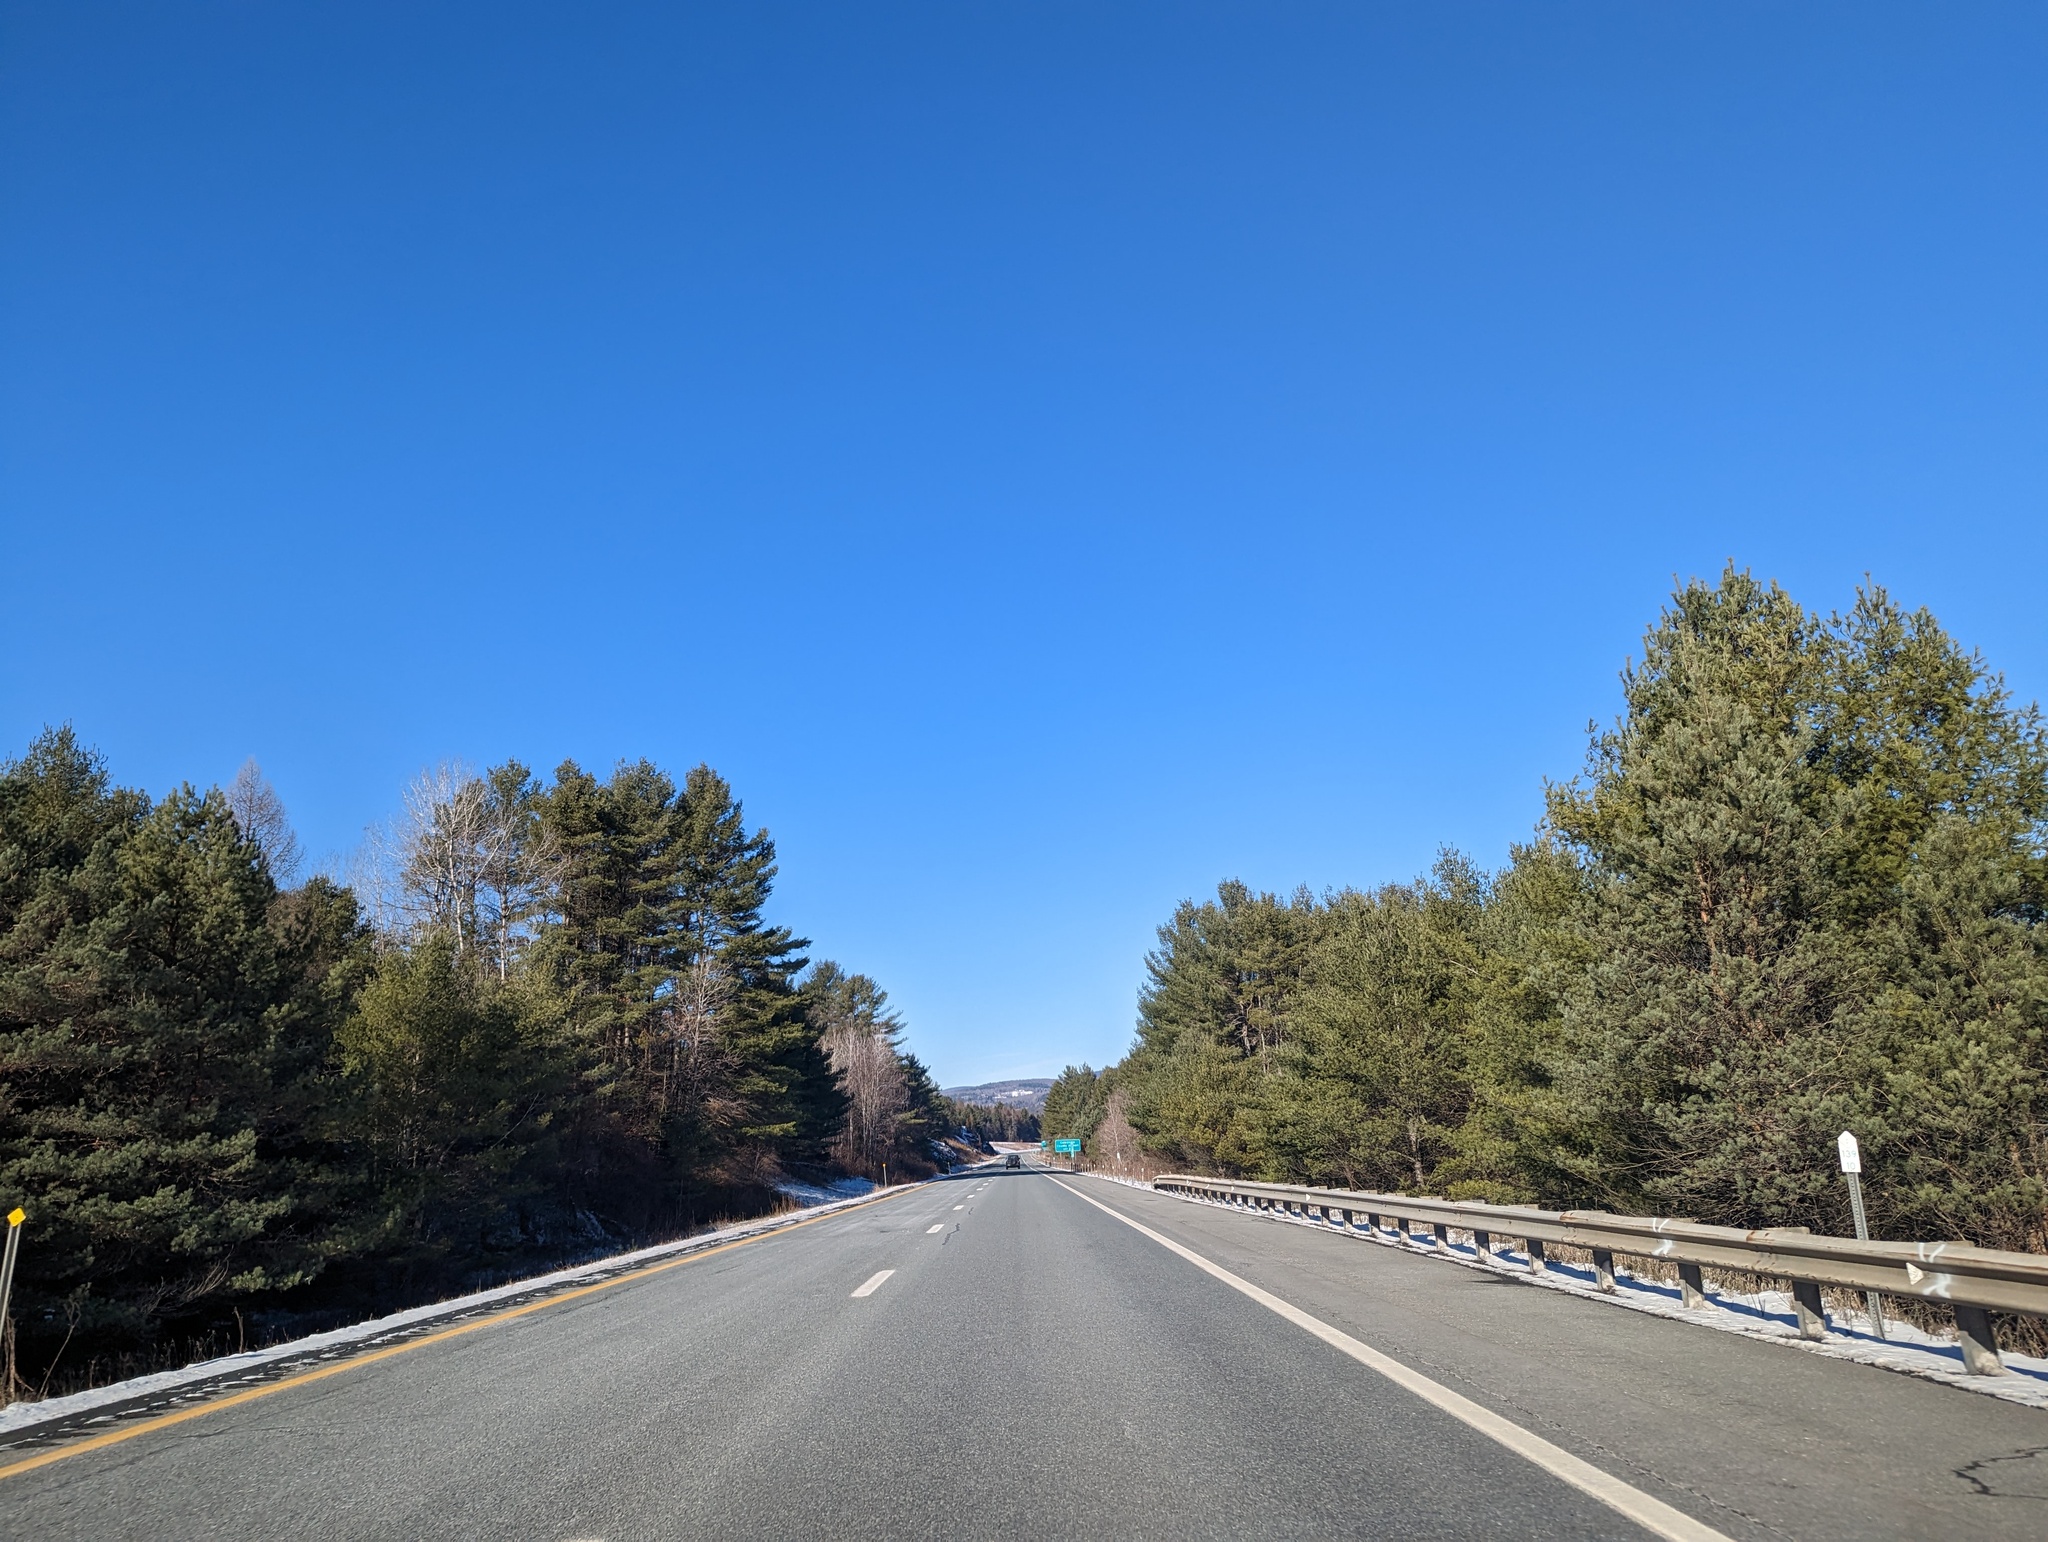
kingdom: Plantae
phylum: Tracheophyta
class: Pinopsida
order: Pinales
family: Pinaceae
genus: Pinus
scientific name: Pinus strobus
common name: Weymouth pine
